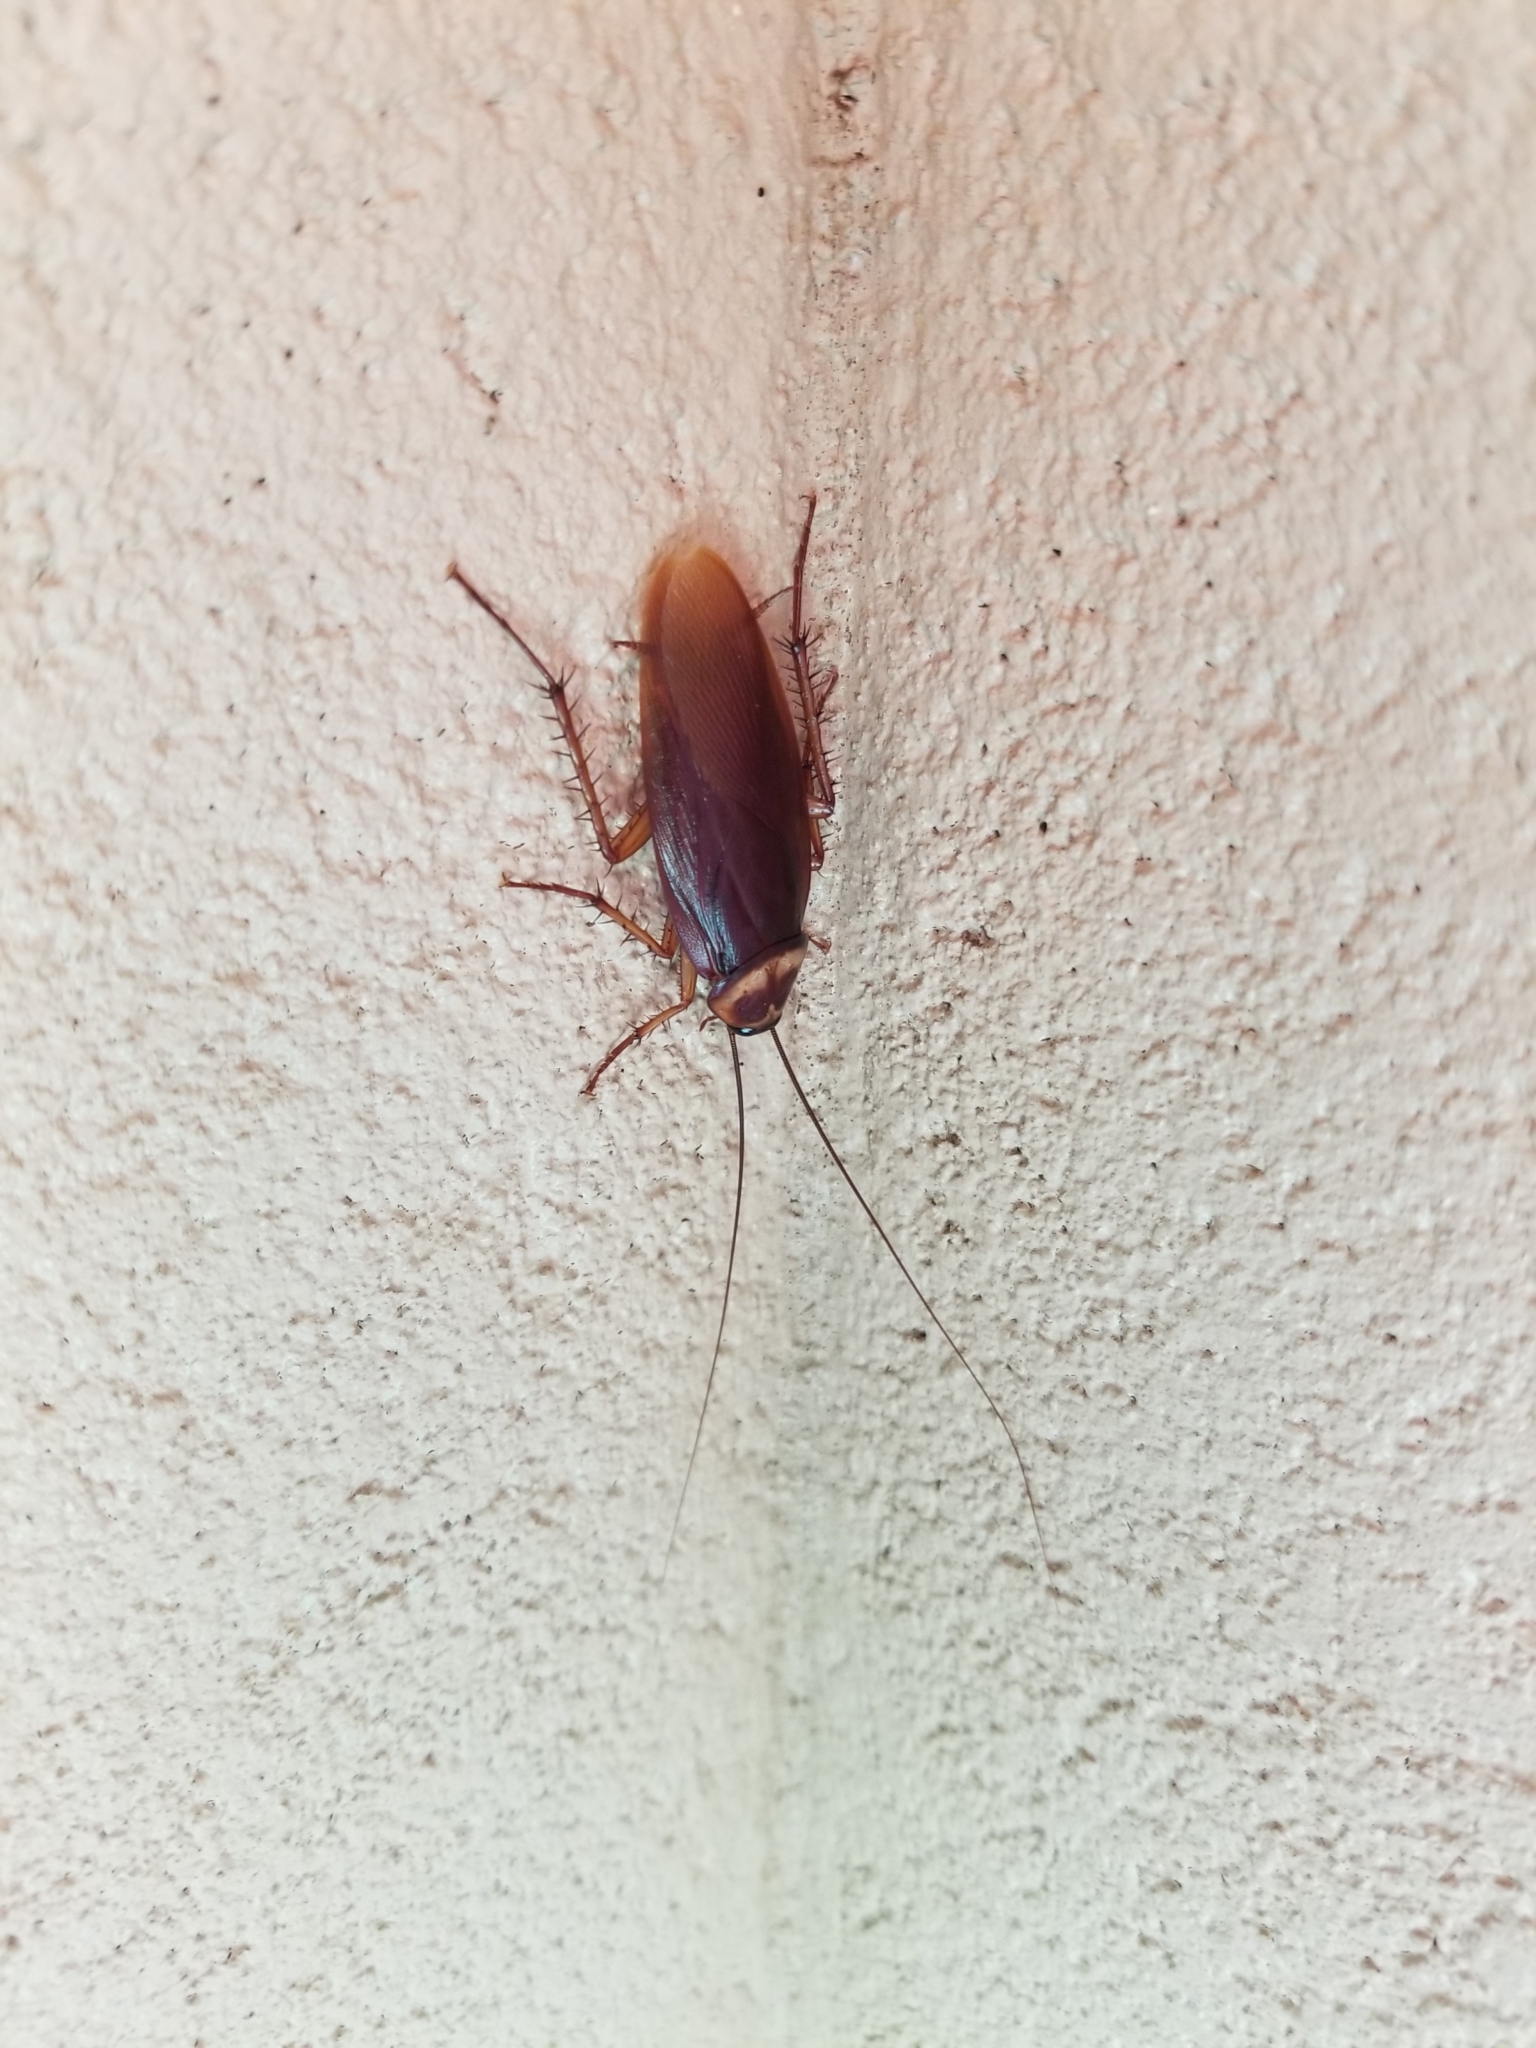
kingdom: Animalia
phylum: Arthropoda
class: Insecta
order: Blattodea
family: Blattidae
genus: Periplaneta
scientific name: Periplaneta americana
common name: American cockroach
